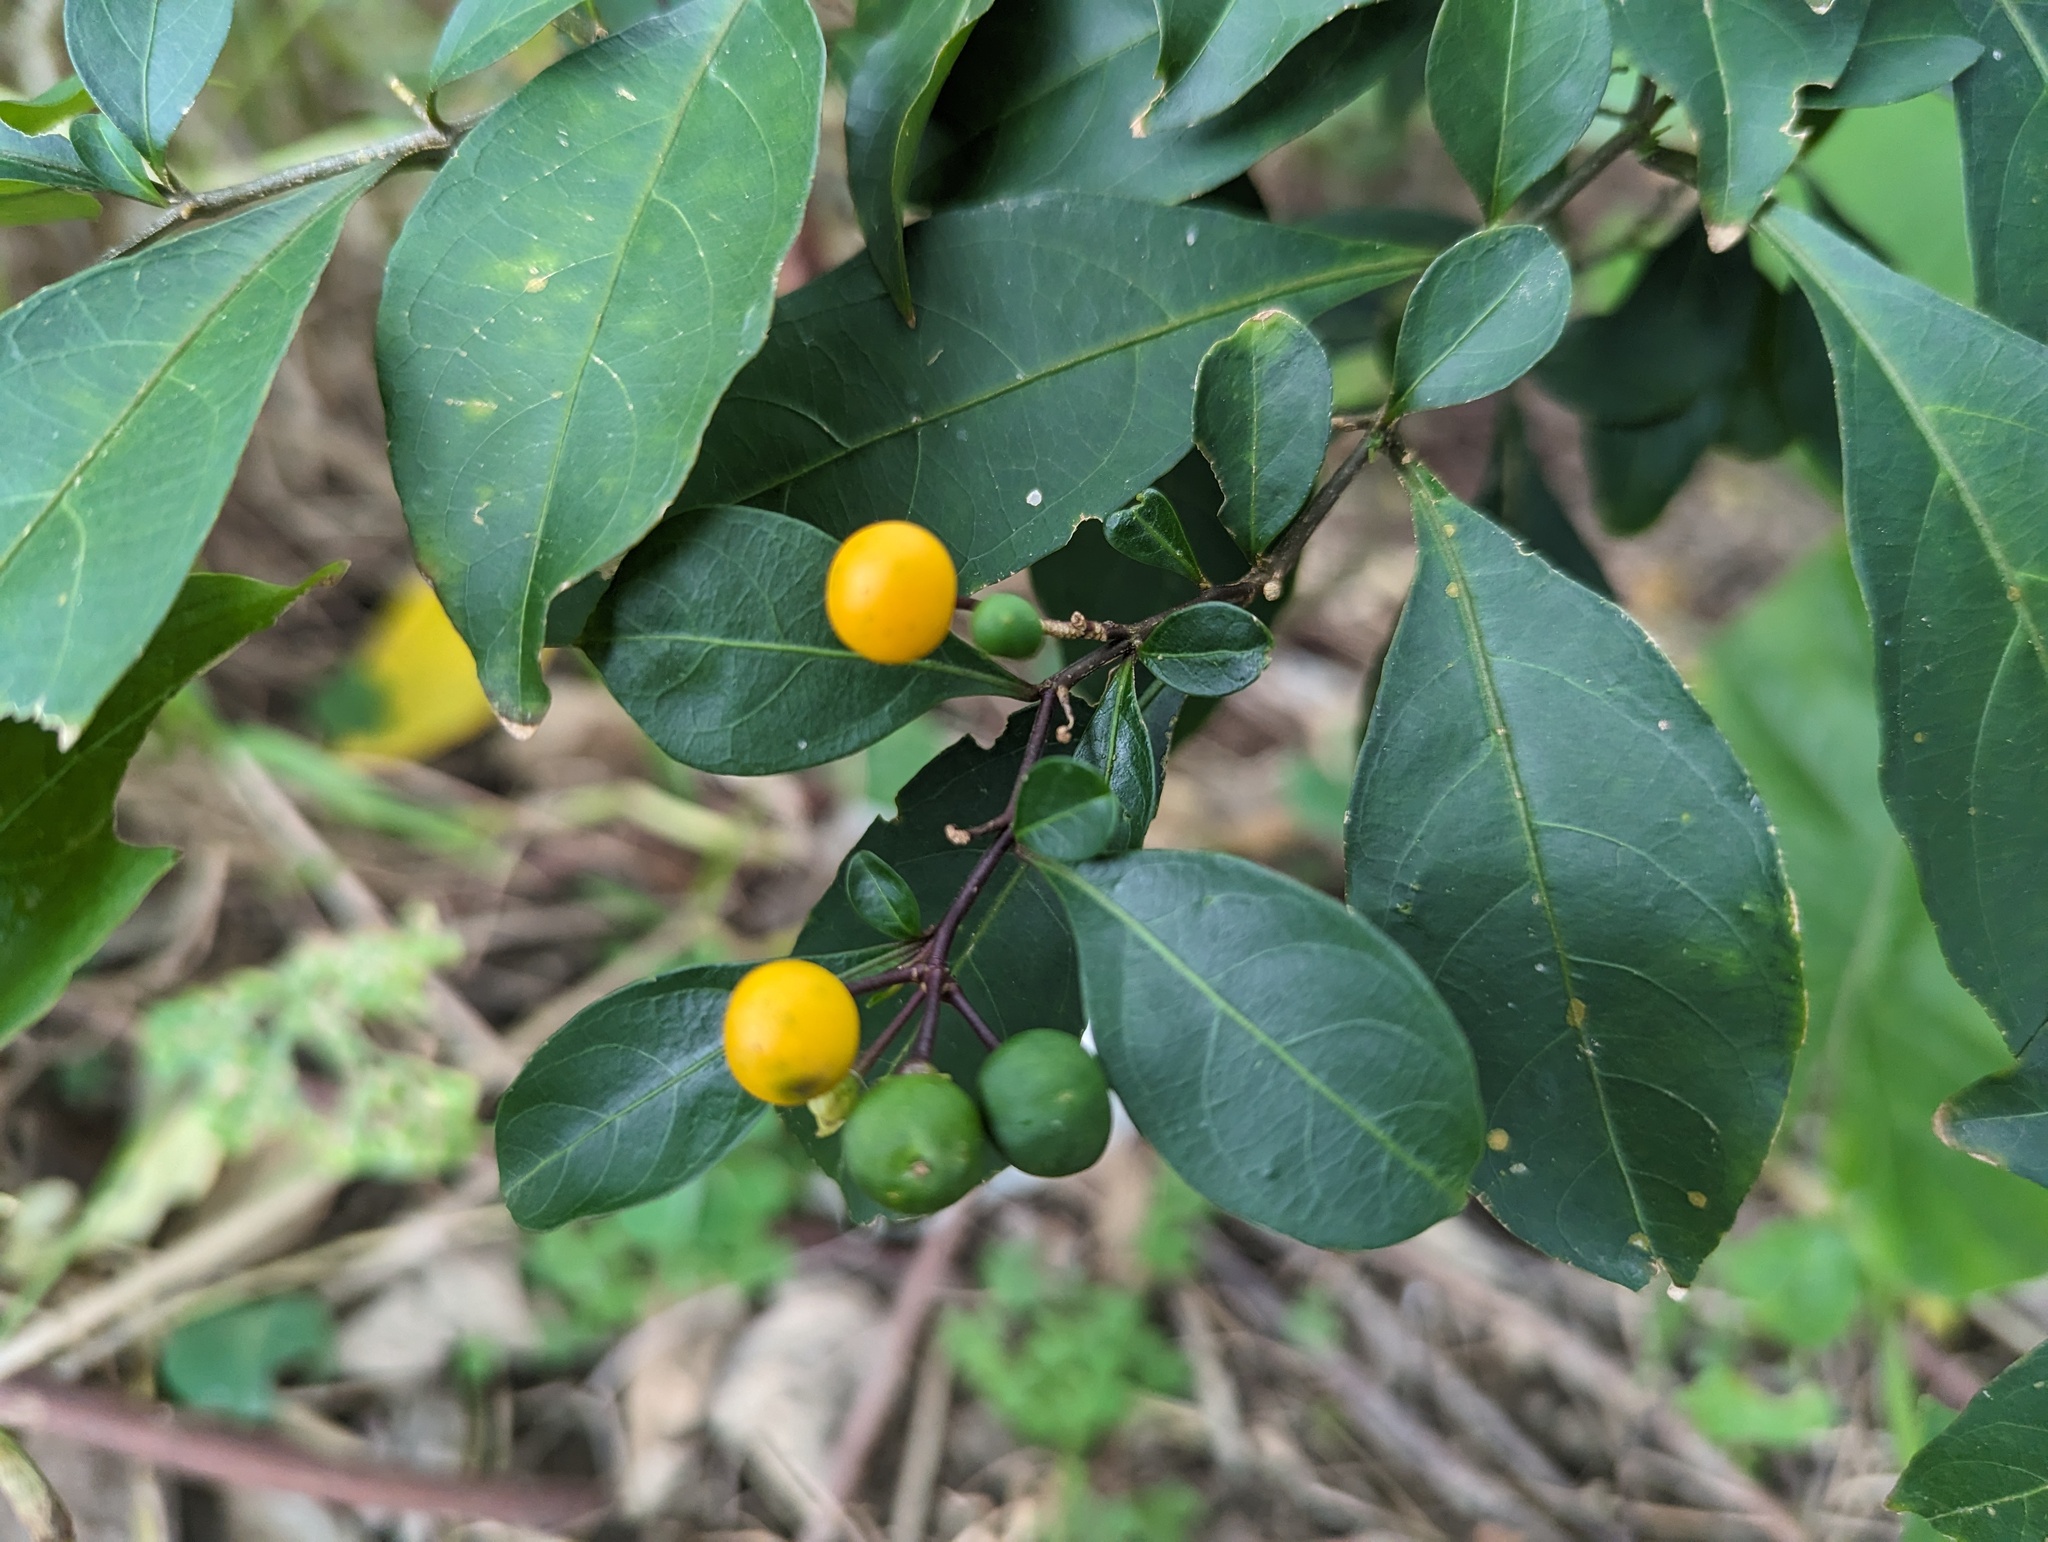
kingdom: Plantae
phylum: Tracheophyta
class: Magnoliopsida
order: Solanales
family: Solanaceae
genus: Solanum
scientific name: Solanum diphyllum
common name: Twoleaf nightshade
